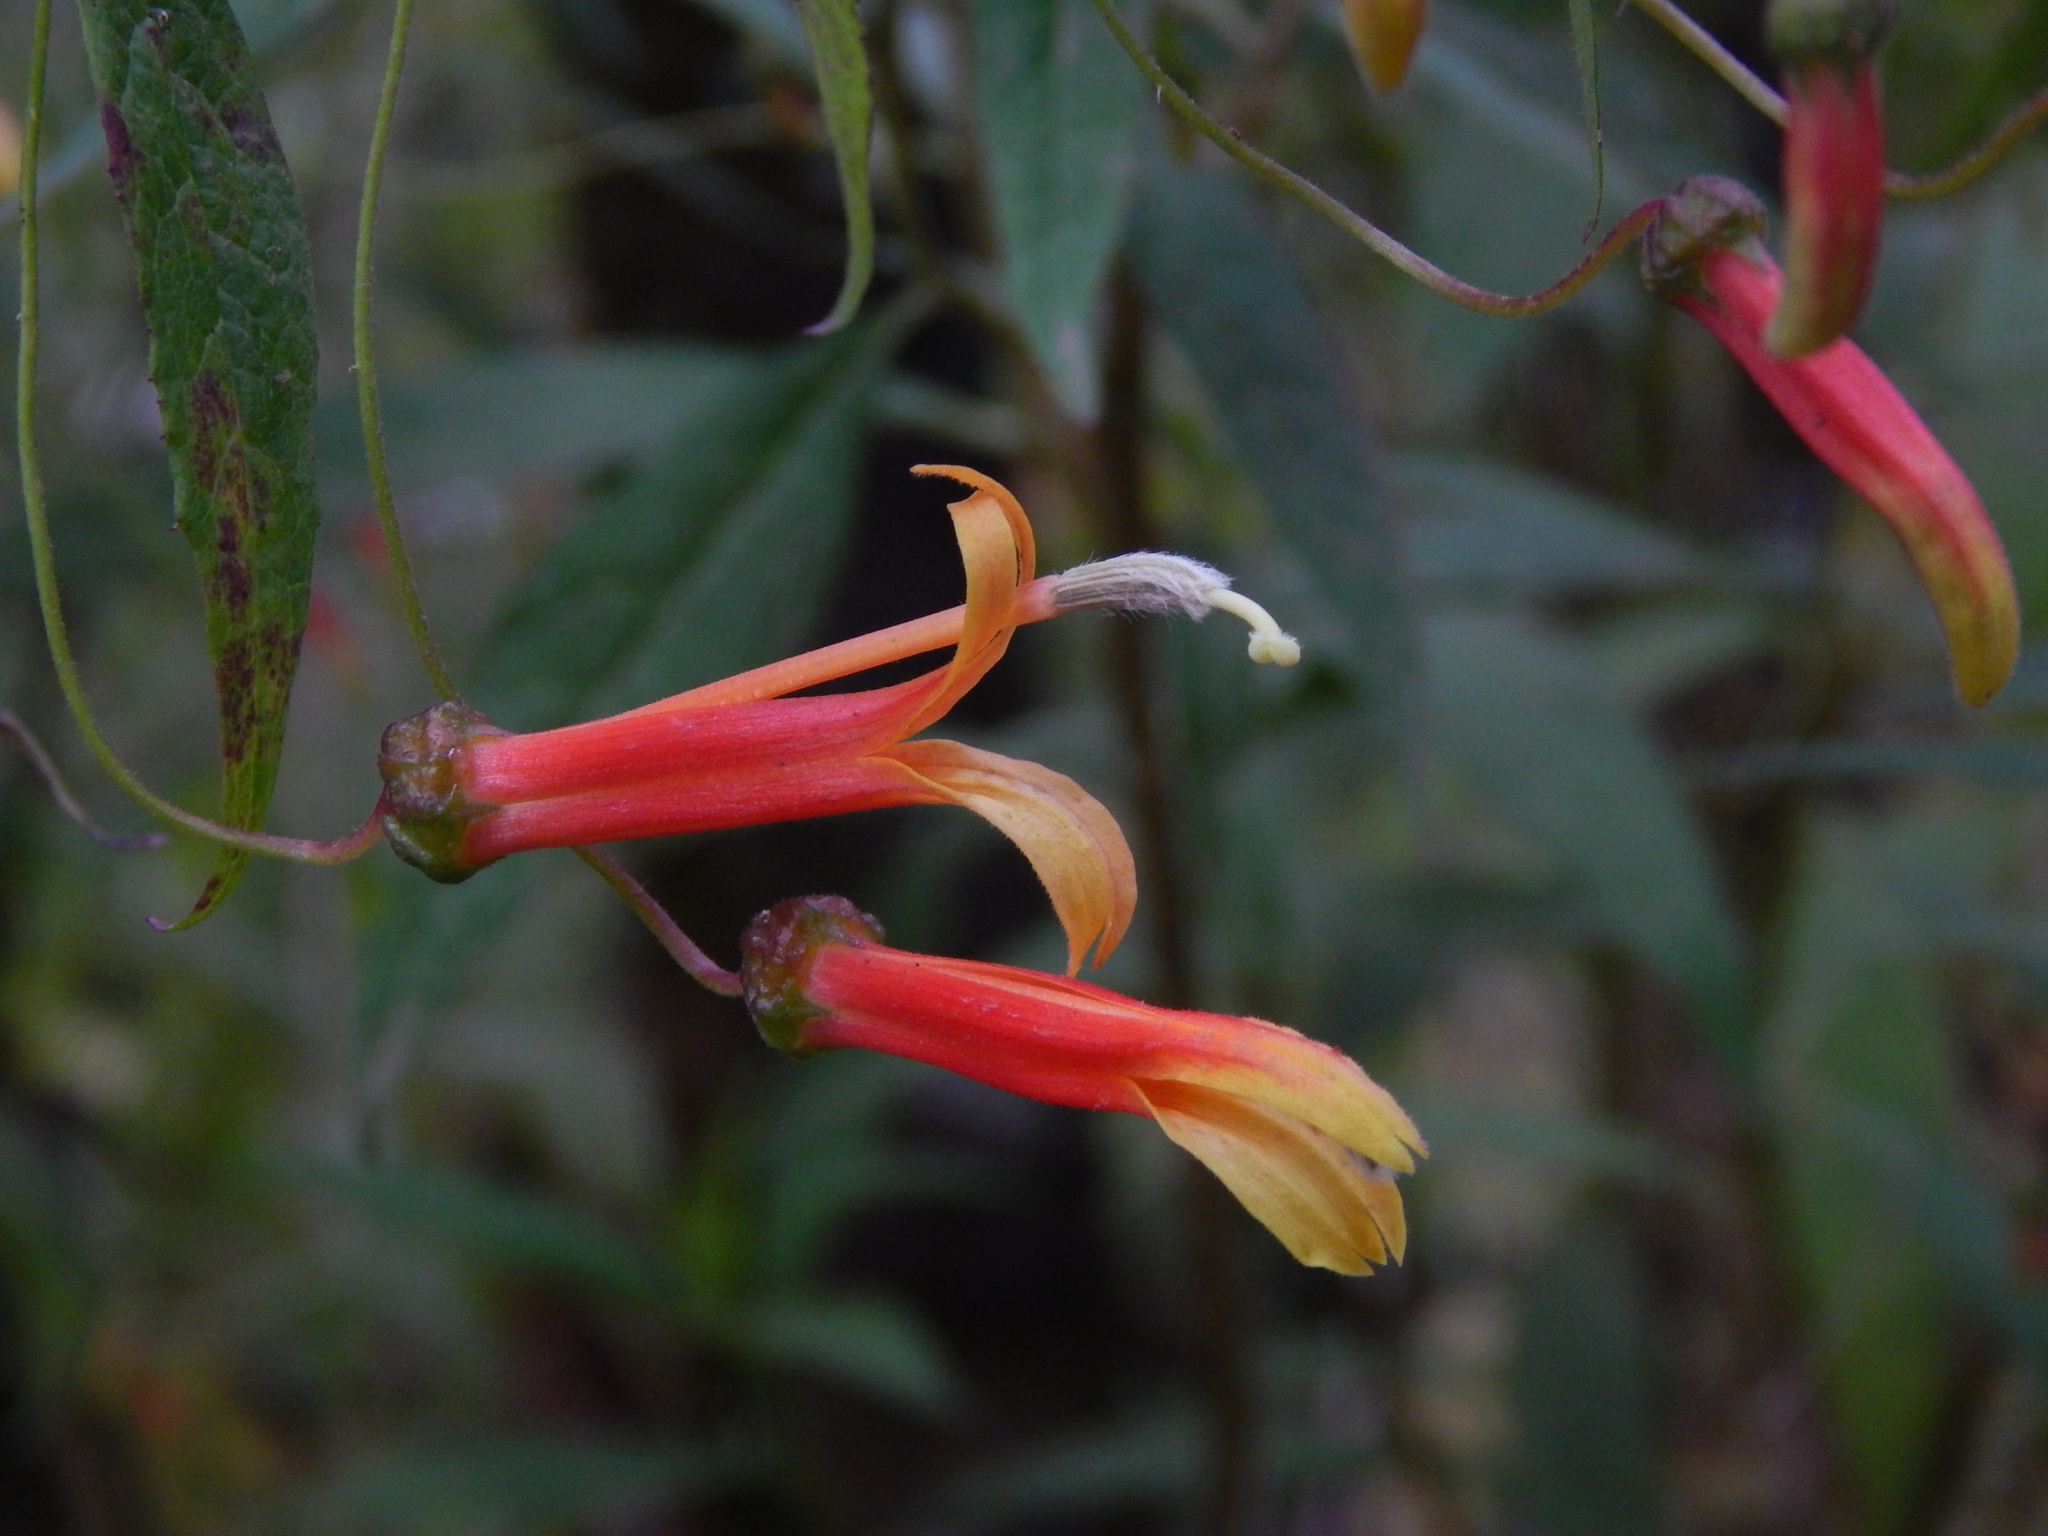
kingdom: Plantae
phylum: Tracheophyta
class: Magnoliopsida
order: Asterales
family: Campanulaceae
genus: Lobelia
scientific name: Lobelia laxiflora
